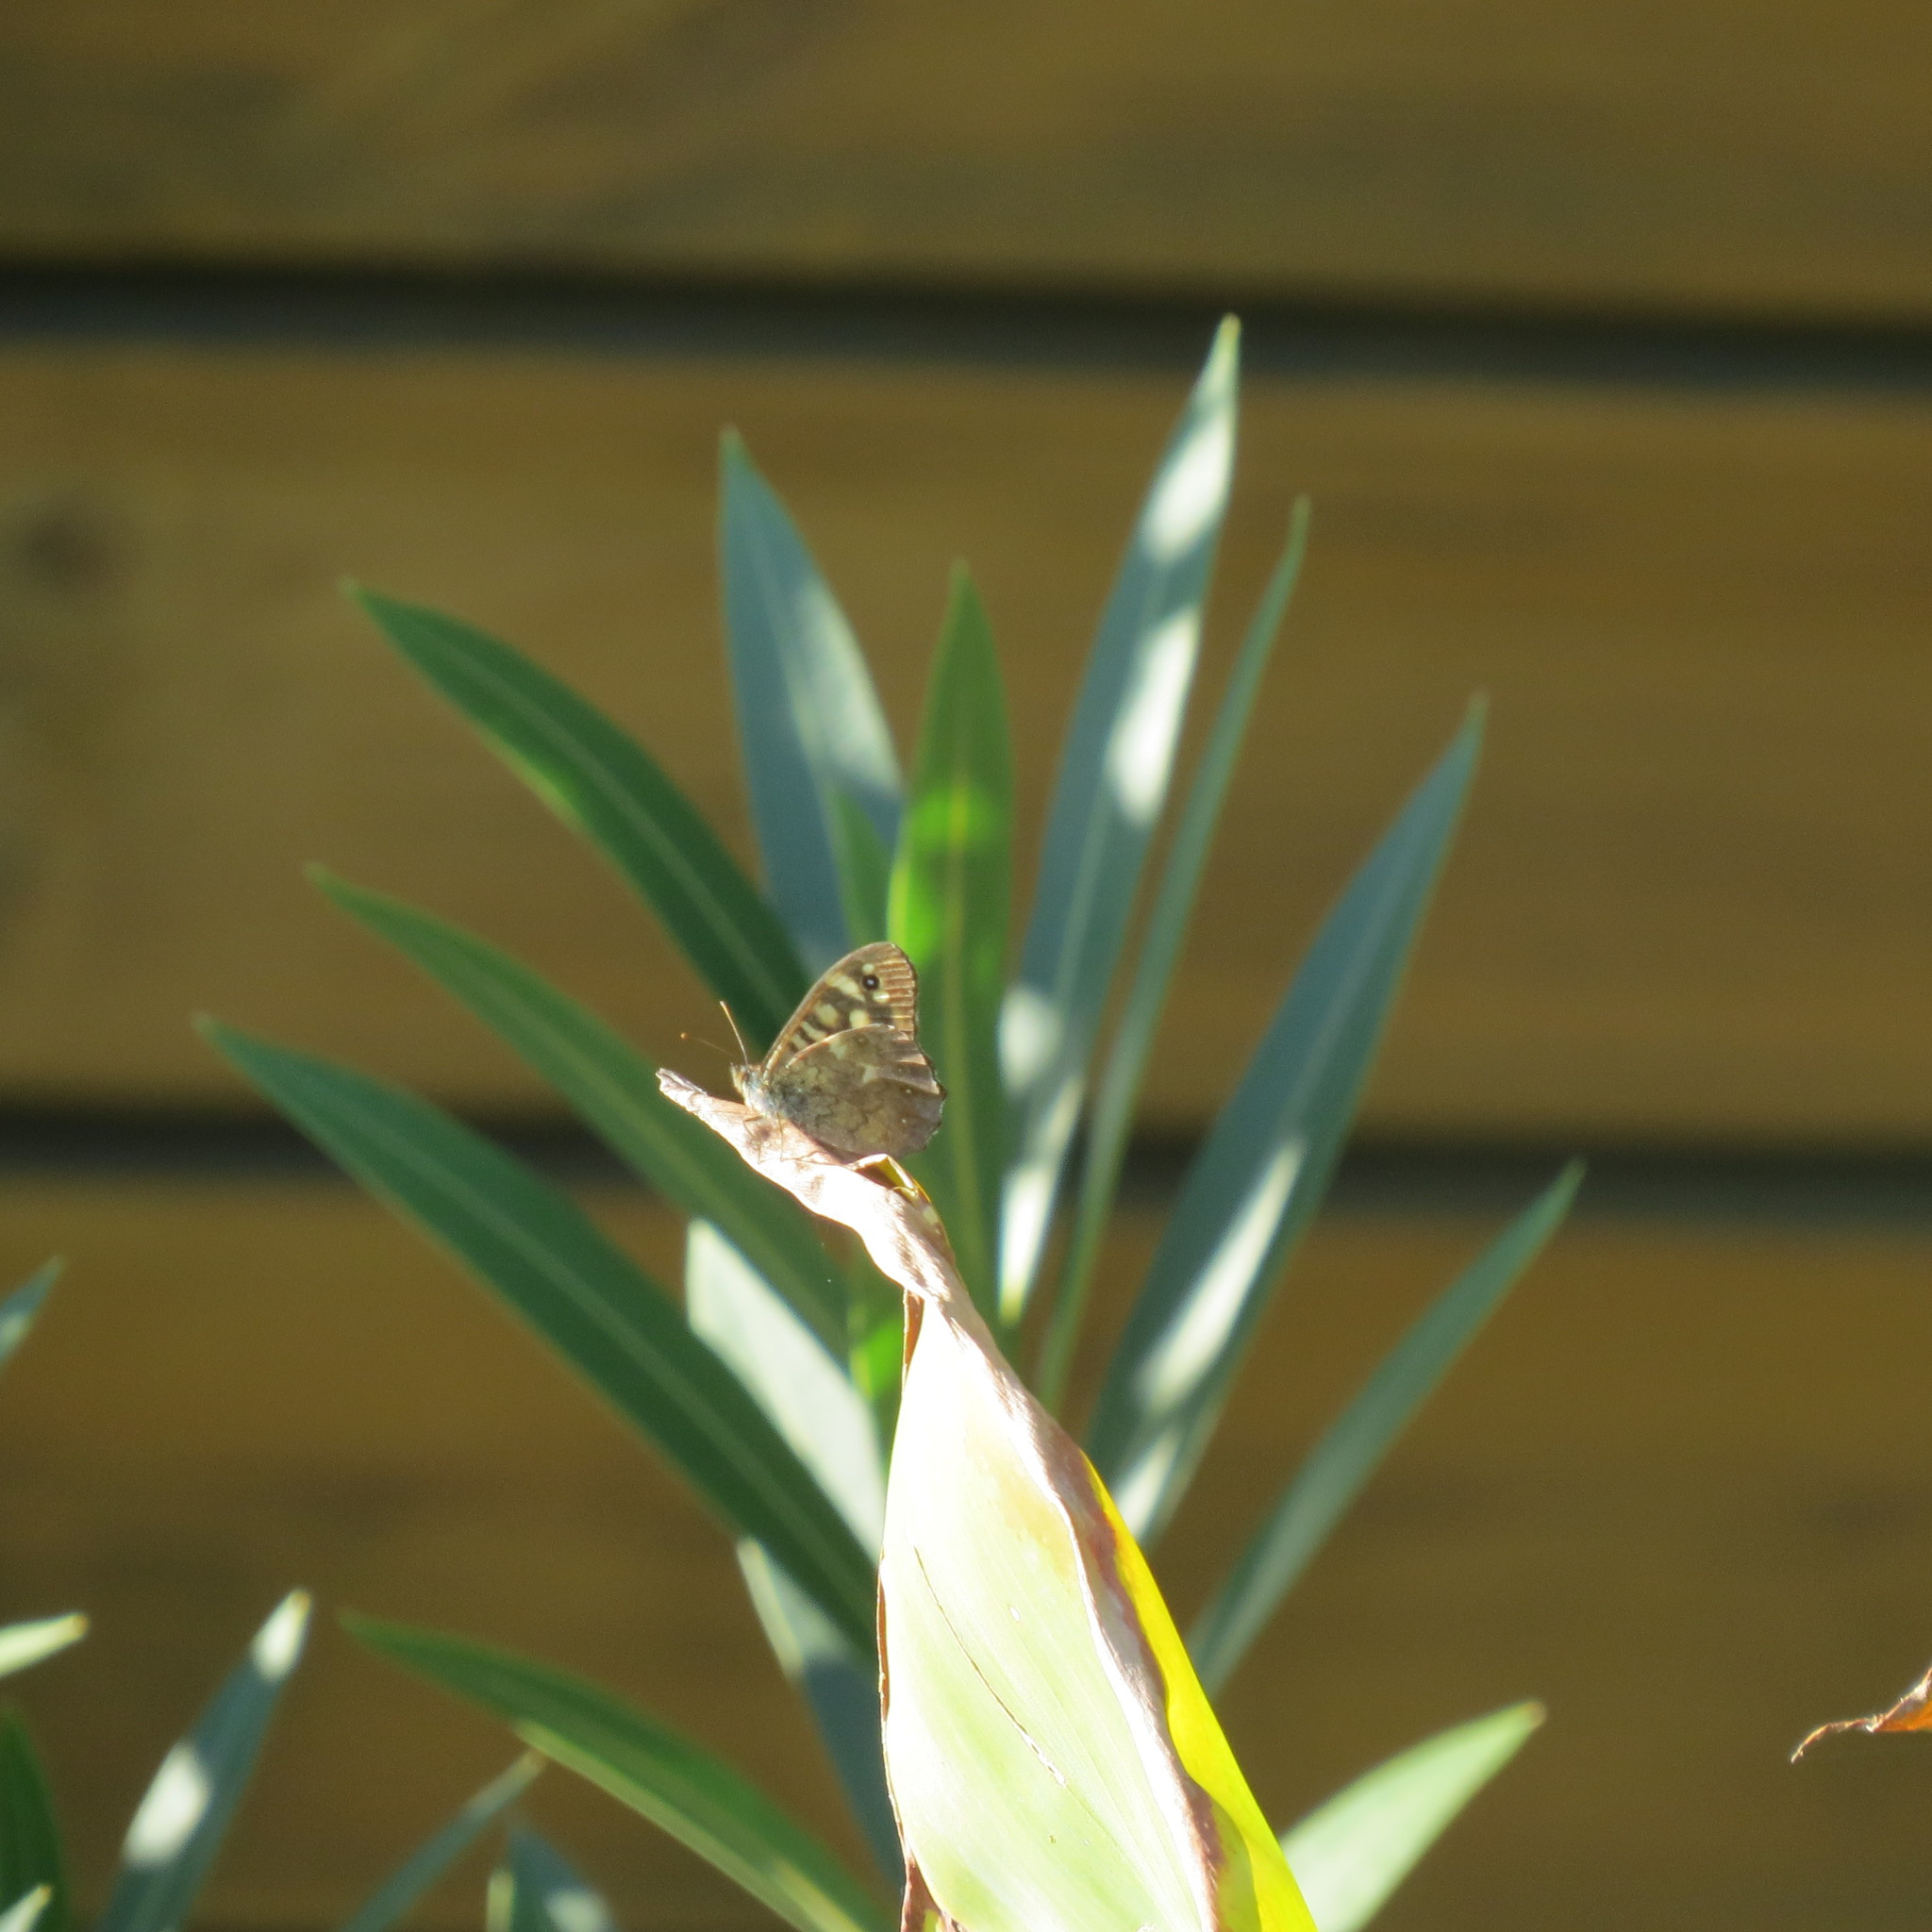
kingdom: Animalia
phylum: Arthropoda
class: Insecta
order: Lepidoptera
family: Nymphalidae
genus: Pararge
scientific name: Pararge aegeria
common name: Speckled wood
